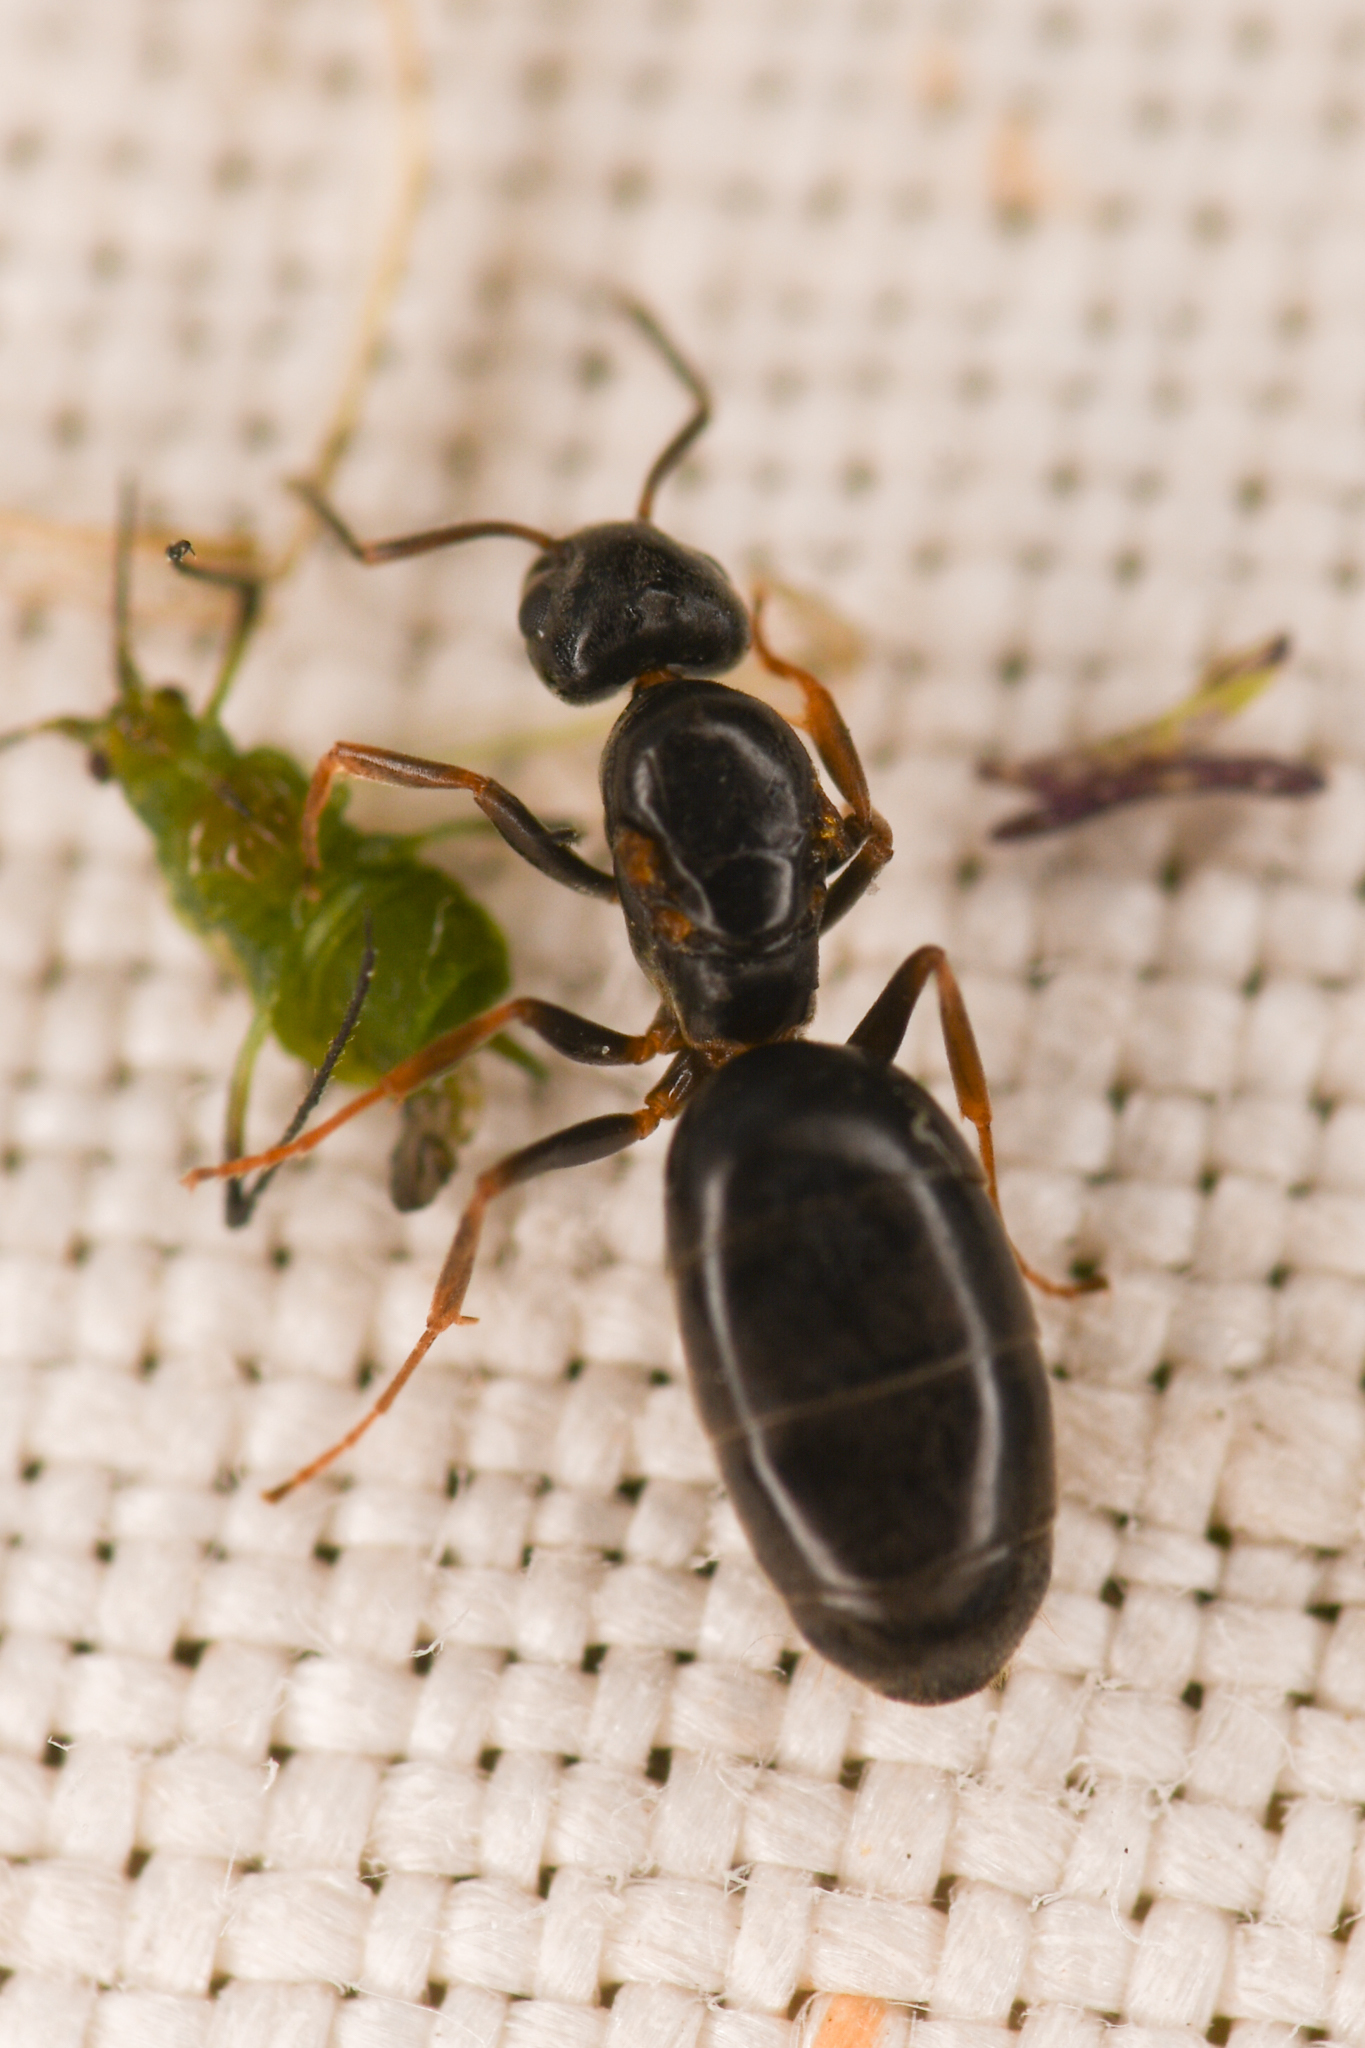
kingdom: Animalia
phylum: Arthropoda
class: Insecta
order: Hymenoptera
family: Formicidae
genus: Tapinoma
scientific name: Tapinoma sessile
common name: Odorous house ant
